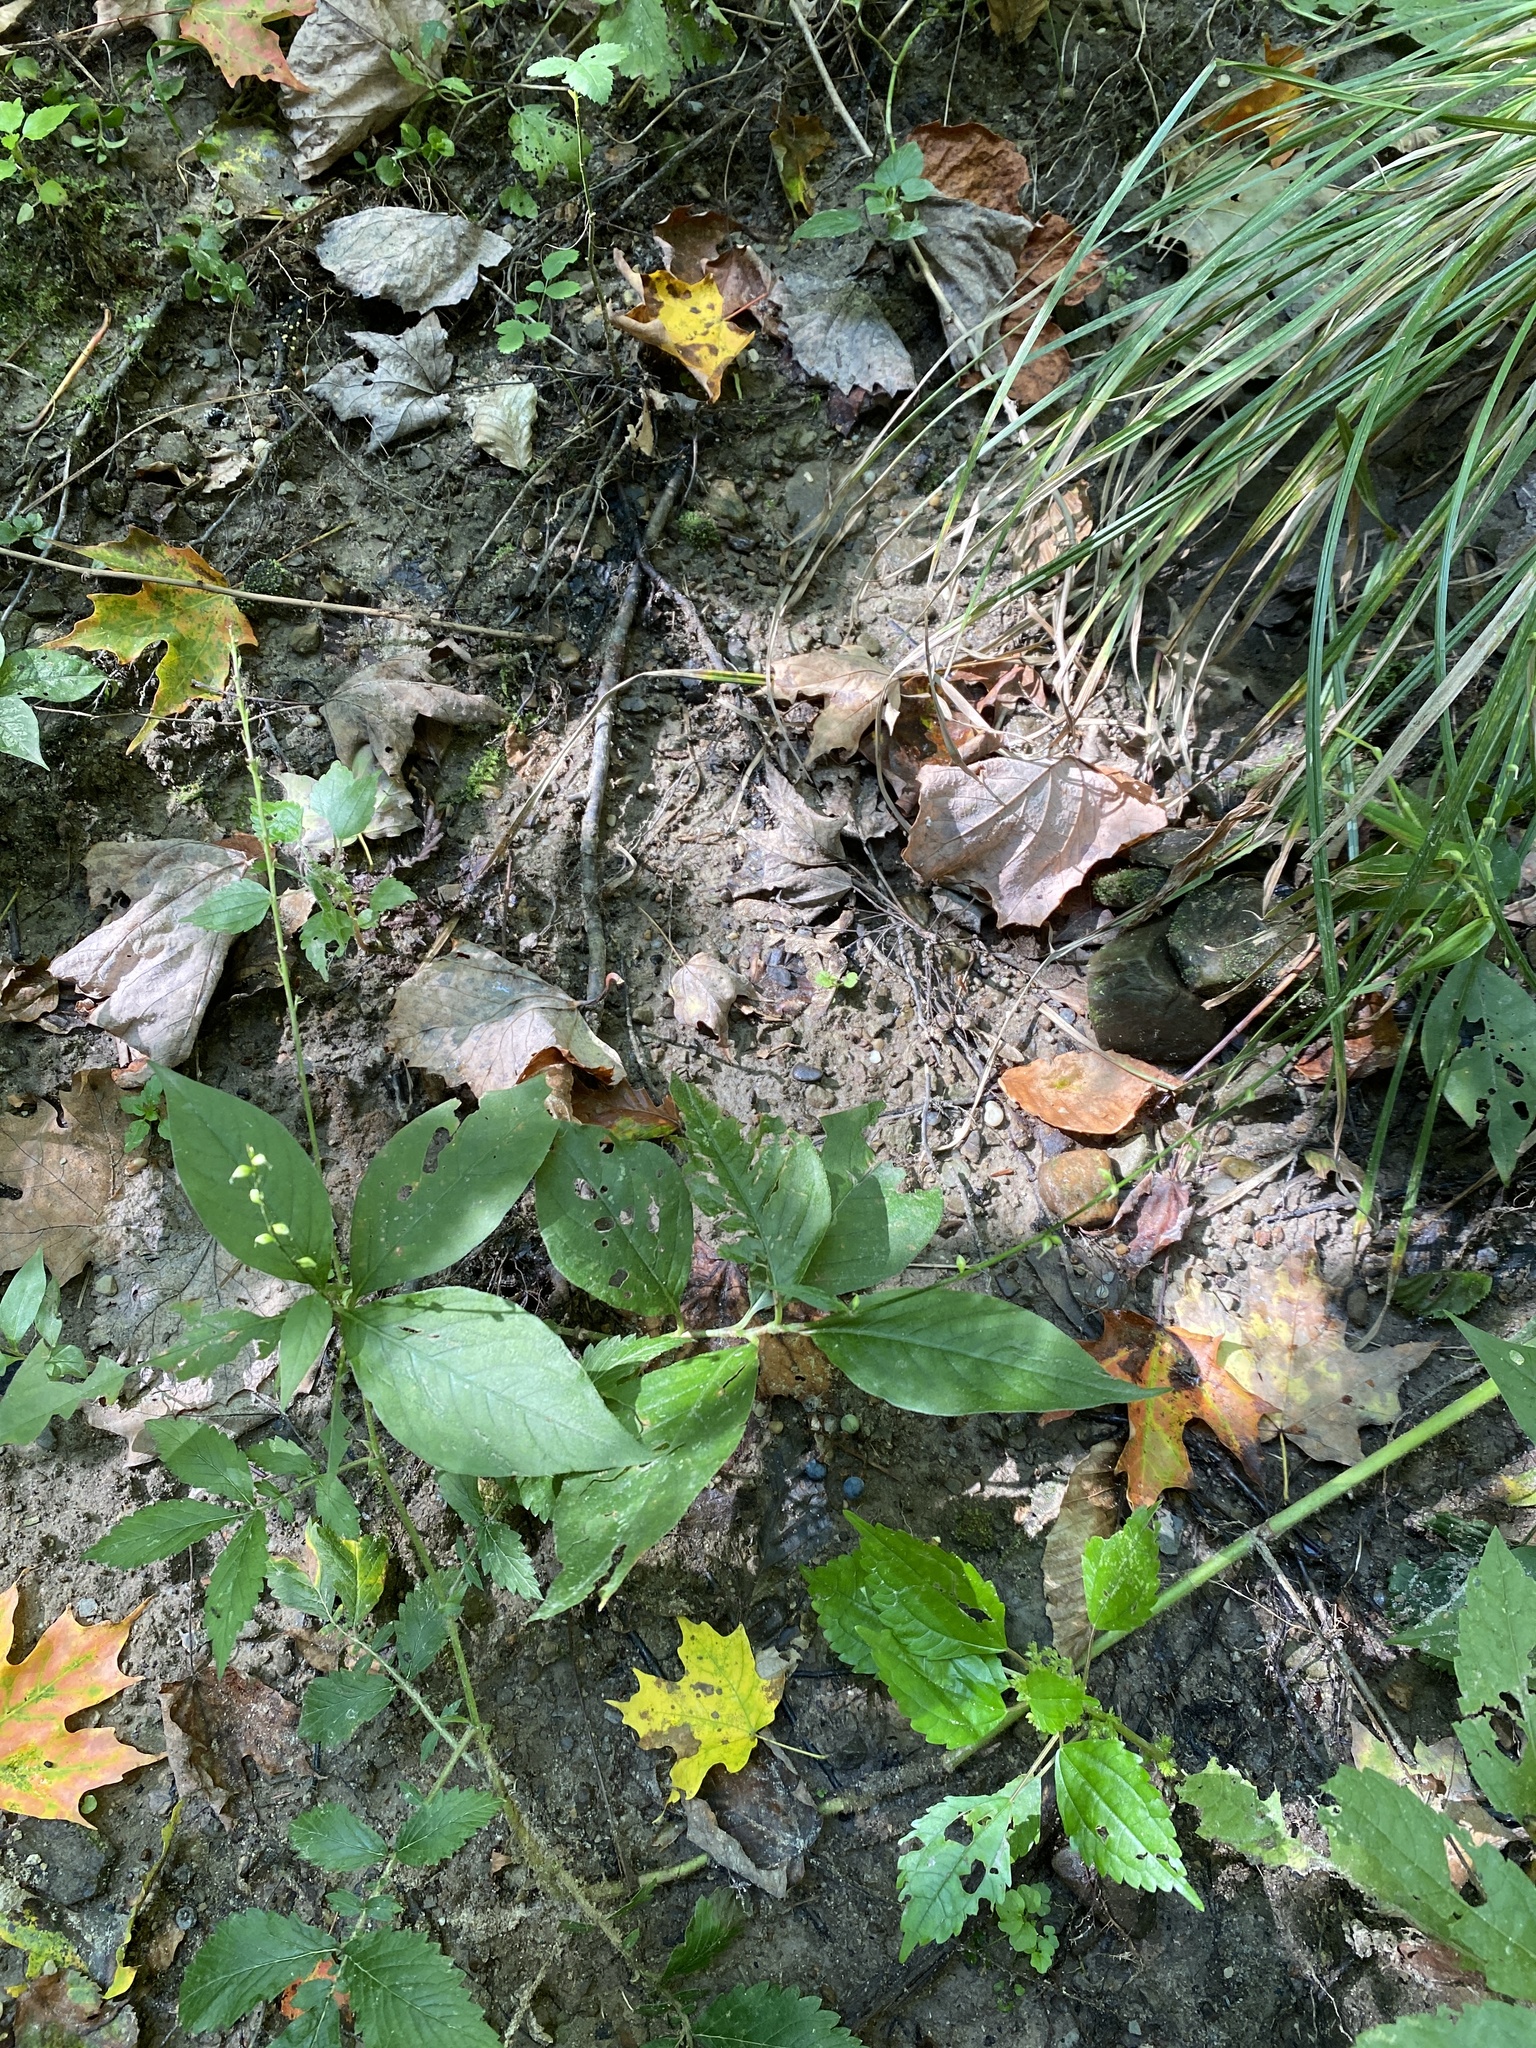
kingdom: Plantae
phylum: Tracheophyta
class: Magnoliopsida
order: Caryophyllales
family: Polygonaceae
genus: Persicaria
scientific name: Persicaria virginiana
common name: Jumpseed
